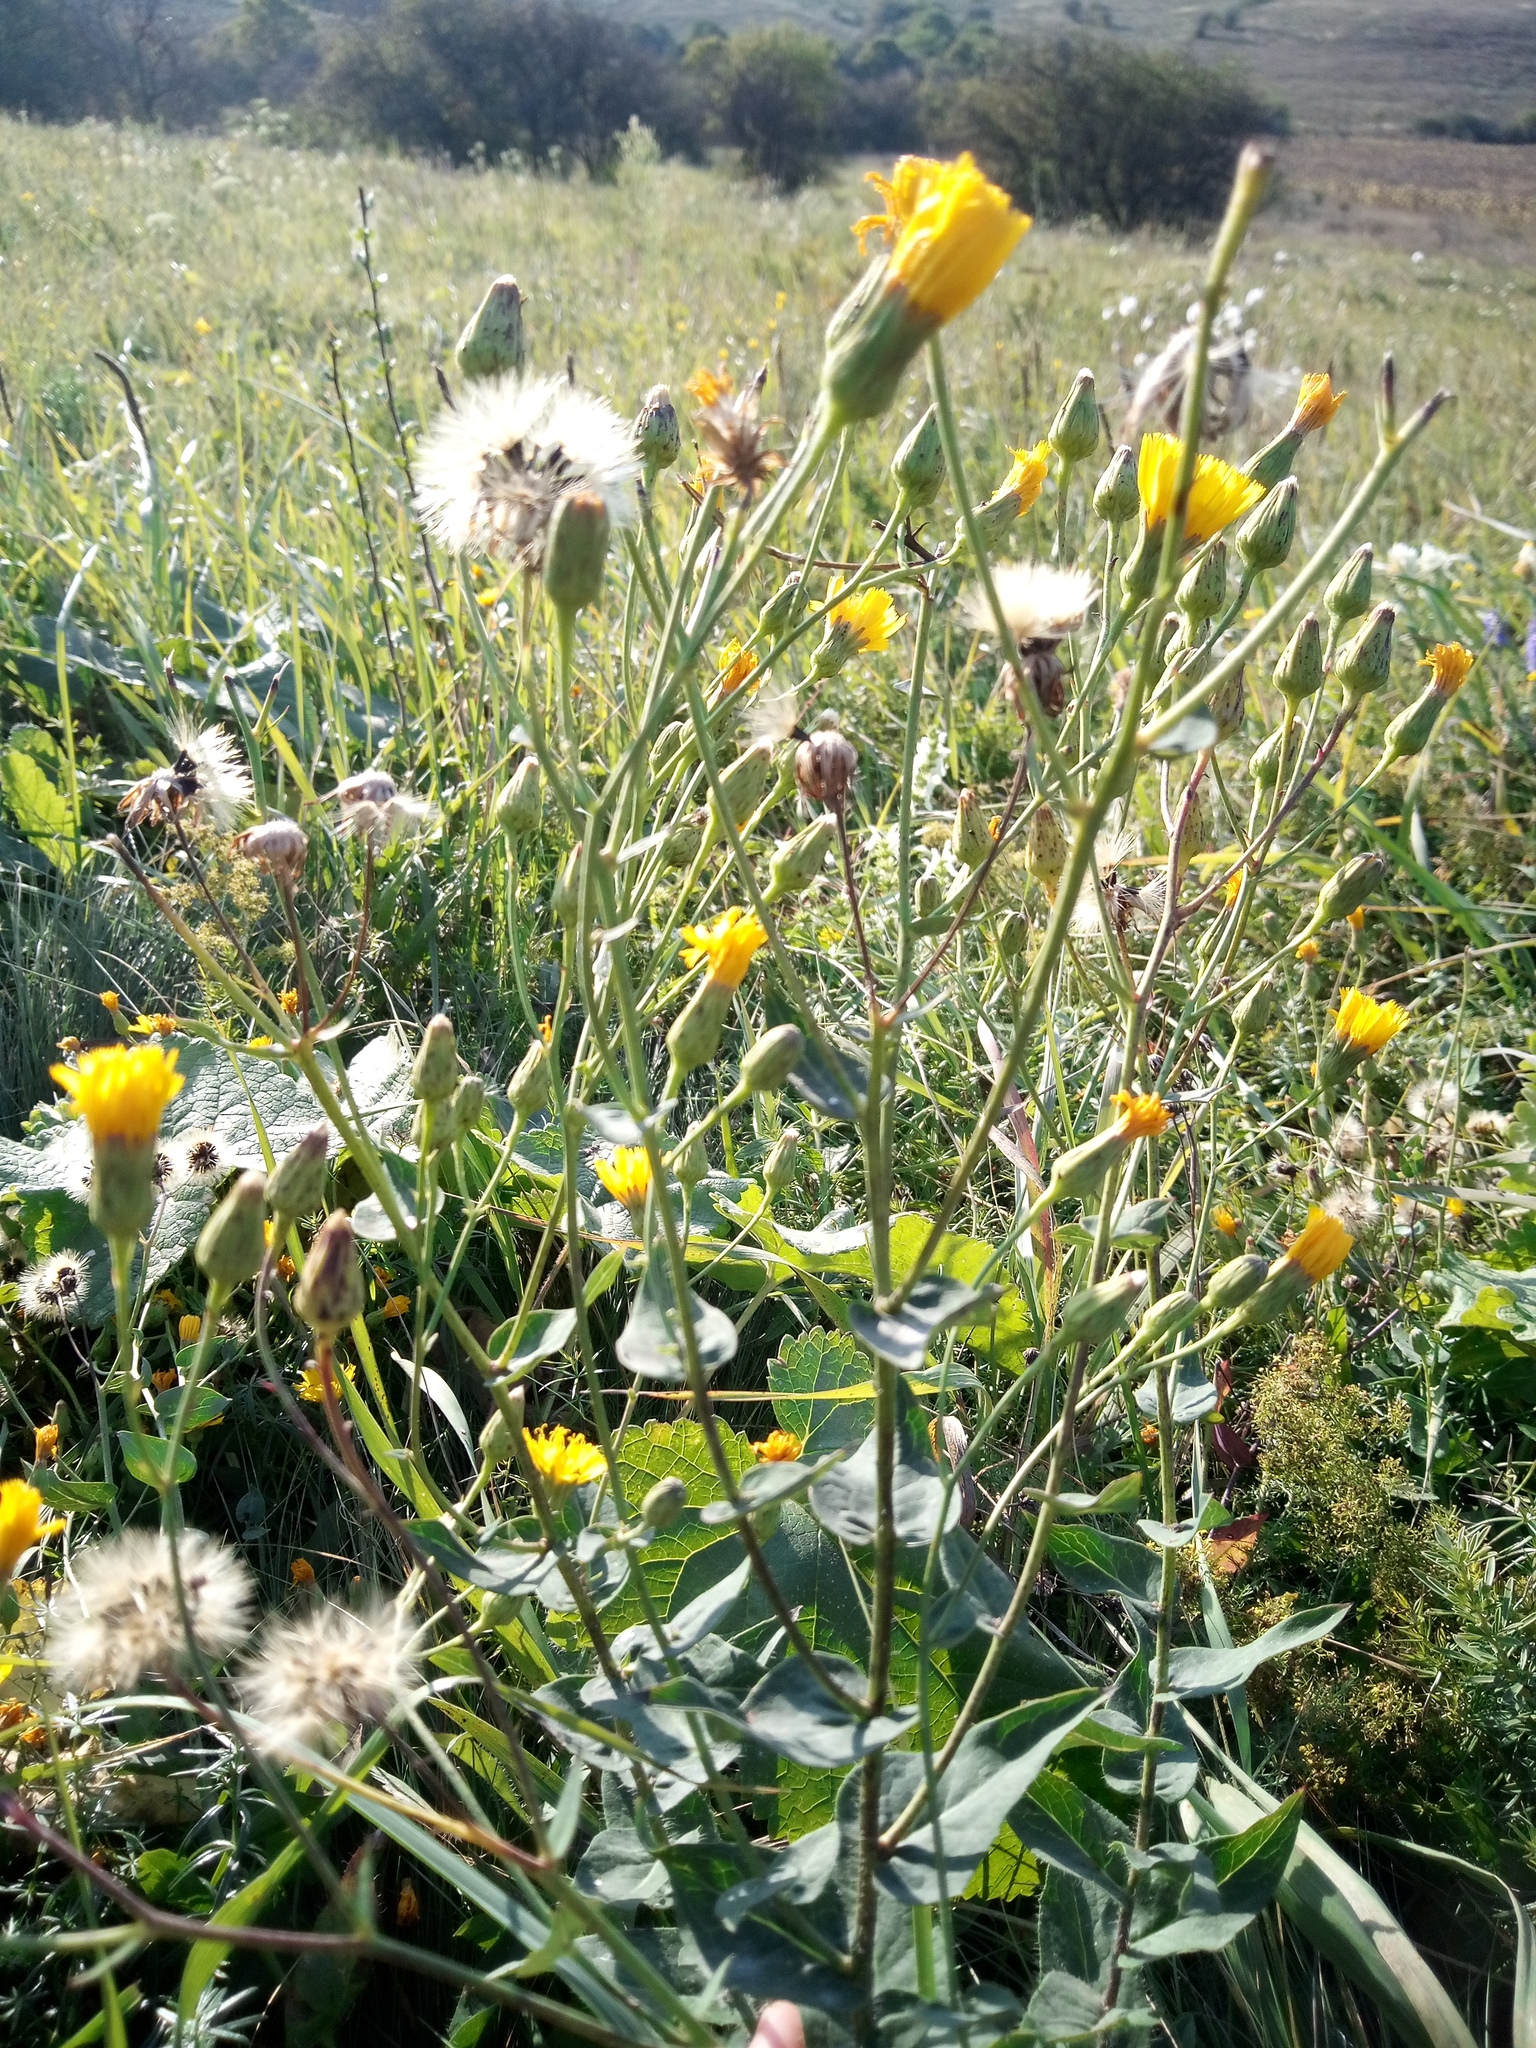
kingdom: Plantae
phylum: Tracheophyta
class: Magnoliopsida
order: Asterales
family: Asteraceae
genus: Hieracium
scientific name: Hieracium virosum
